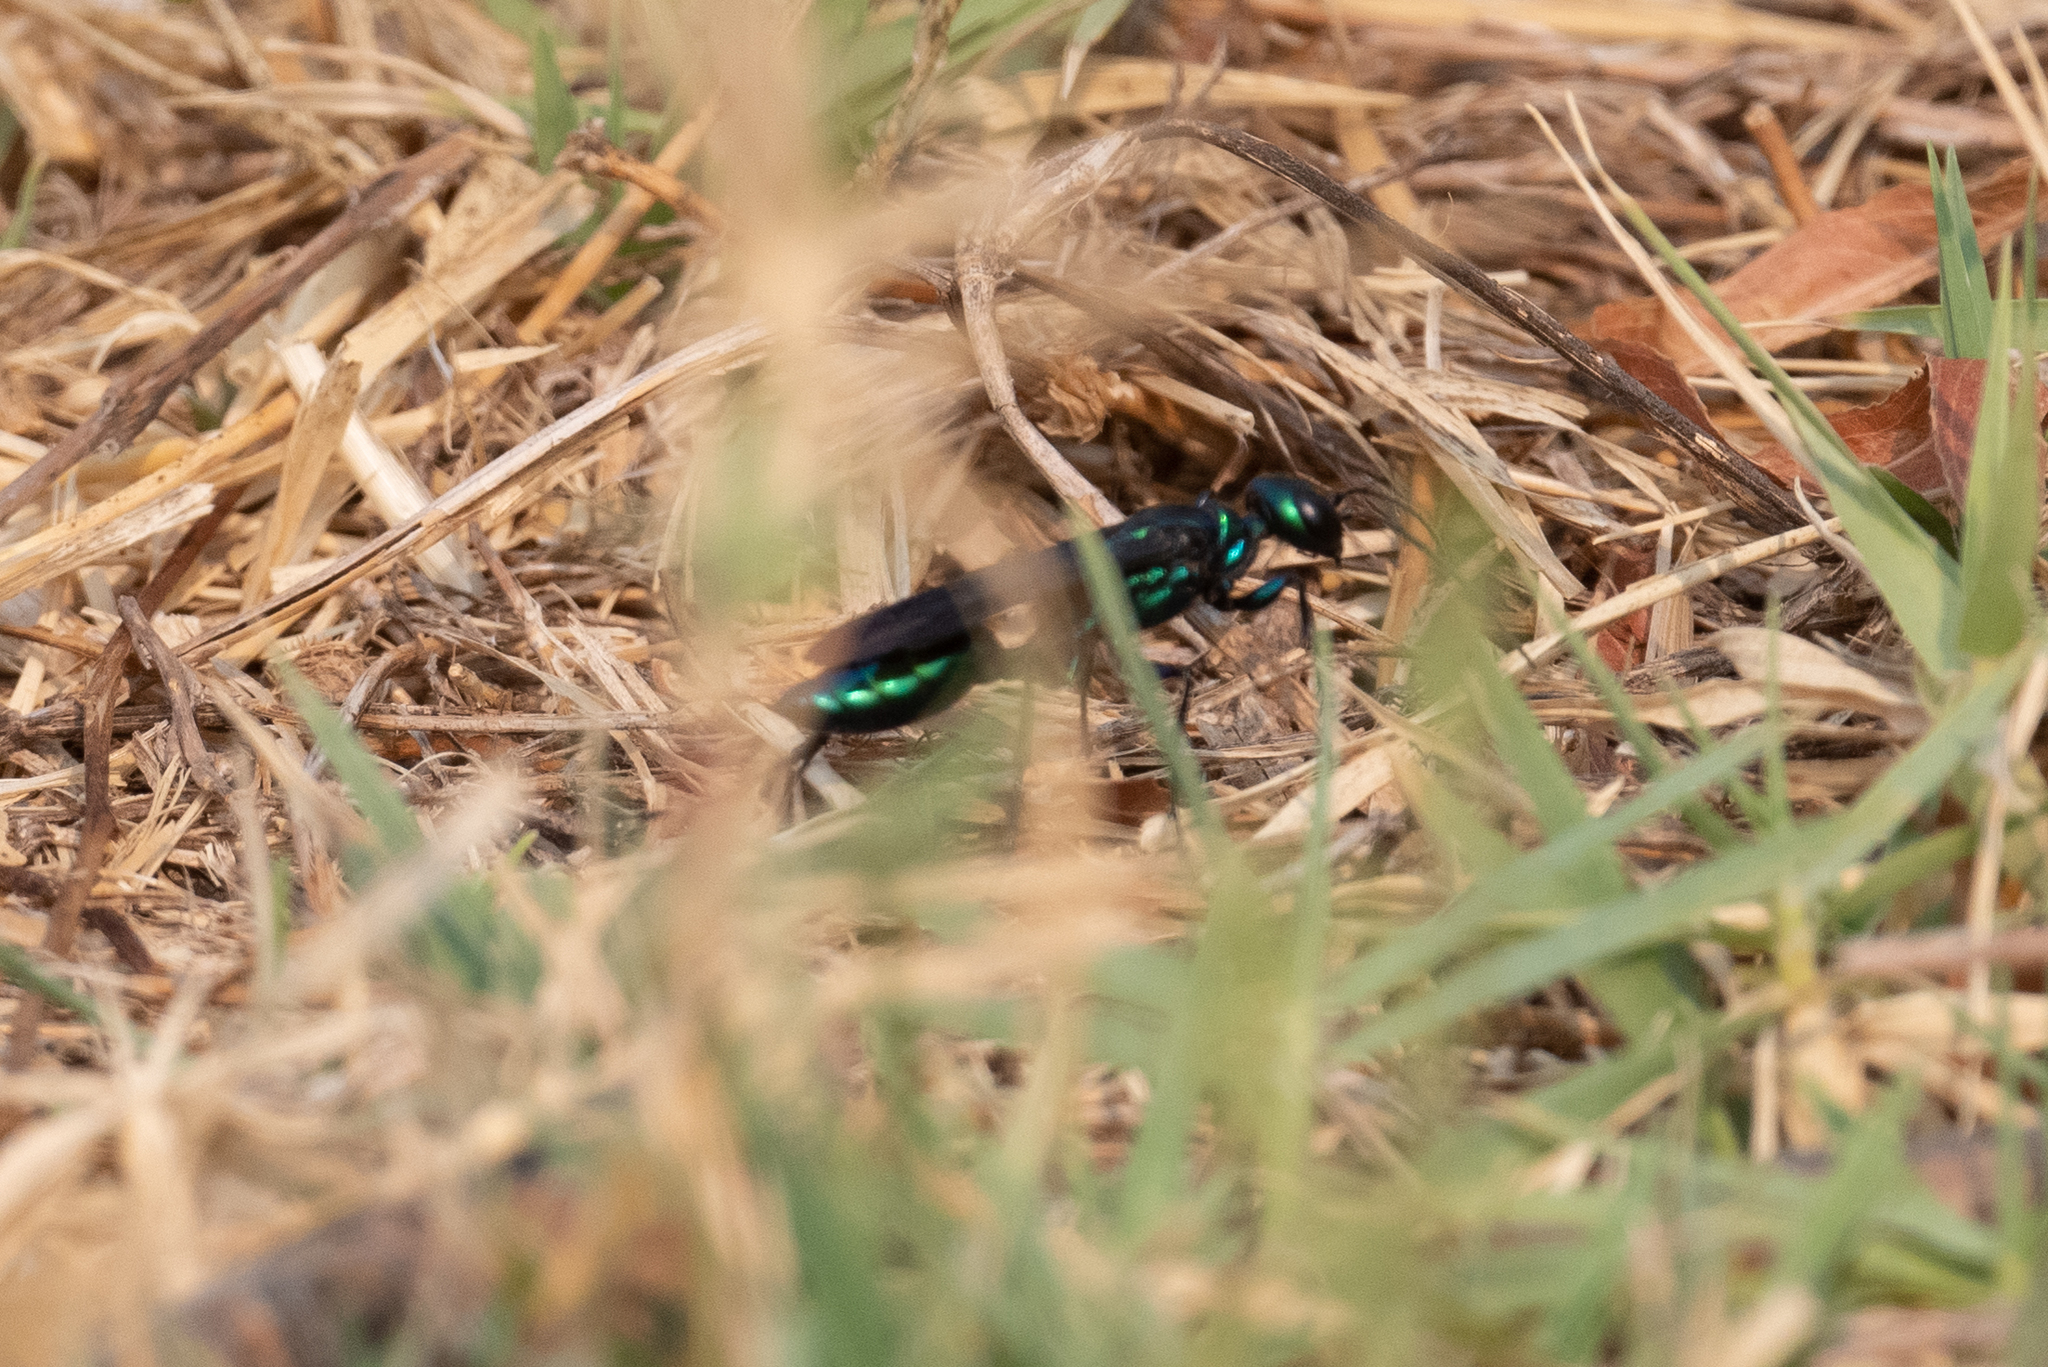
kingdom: Animalia
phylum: Arthropoda
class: Insecta
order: Hymenoptera
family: Sphecidae
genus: Chlorion
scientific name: Chlorion aerarium
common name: Steel-blue cricket hunter
